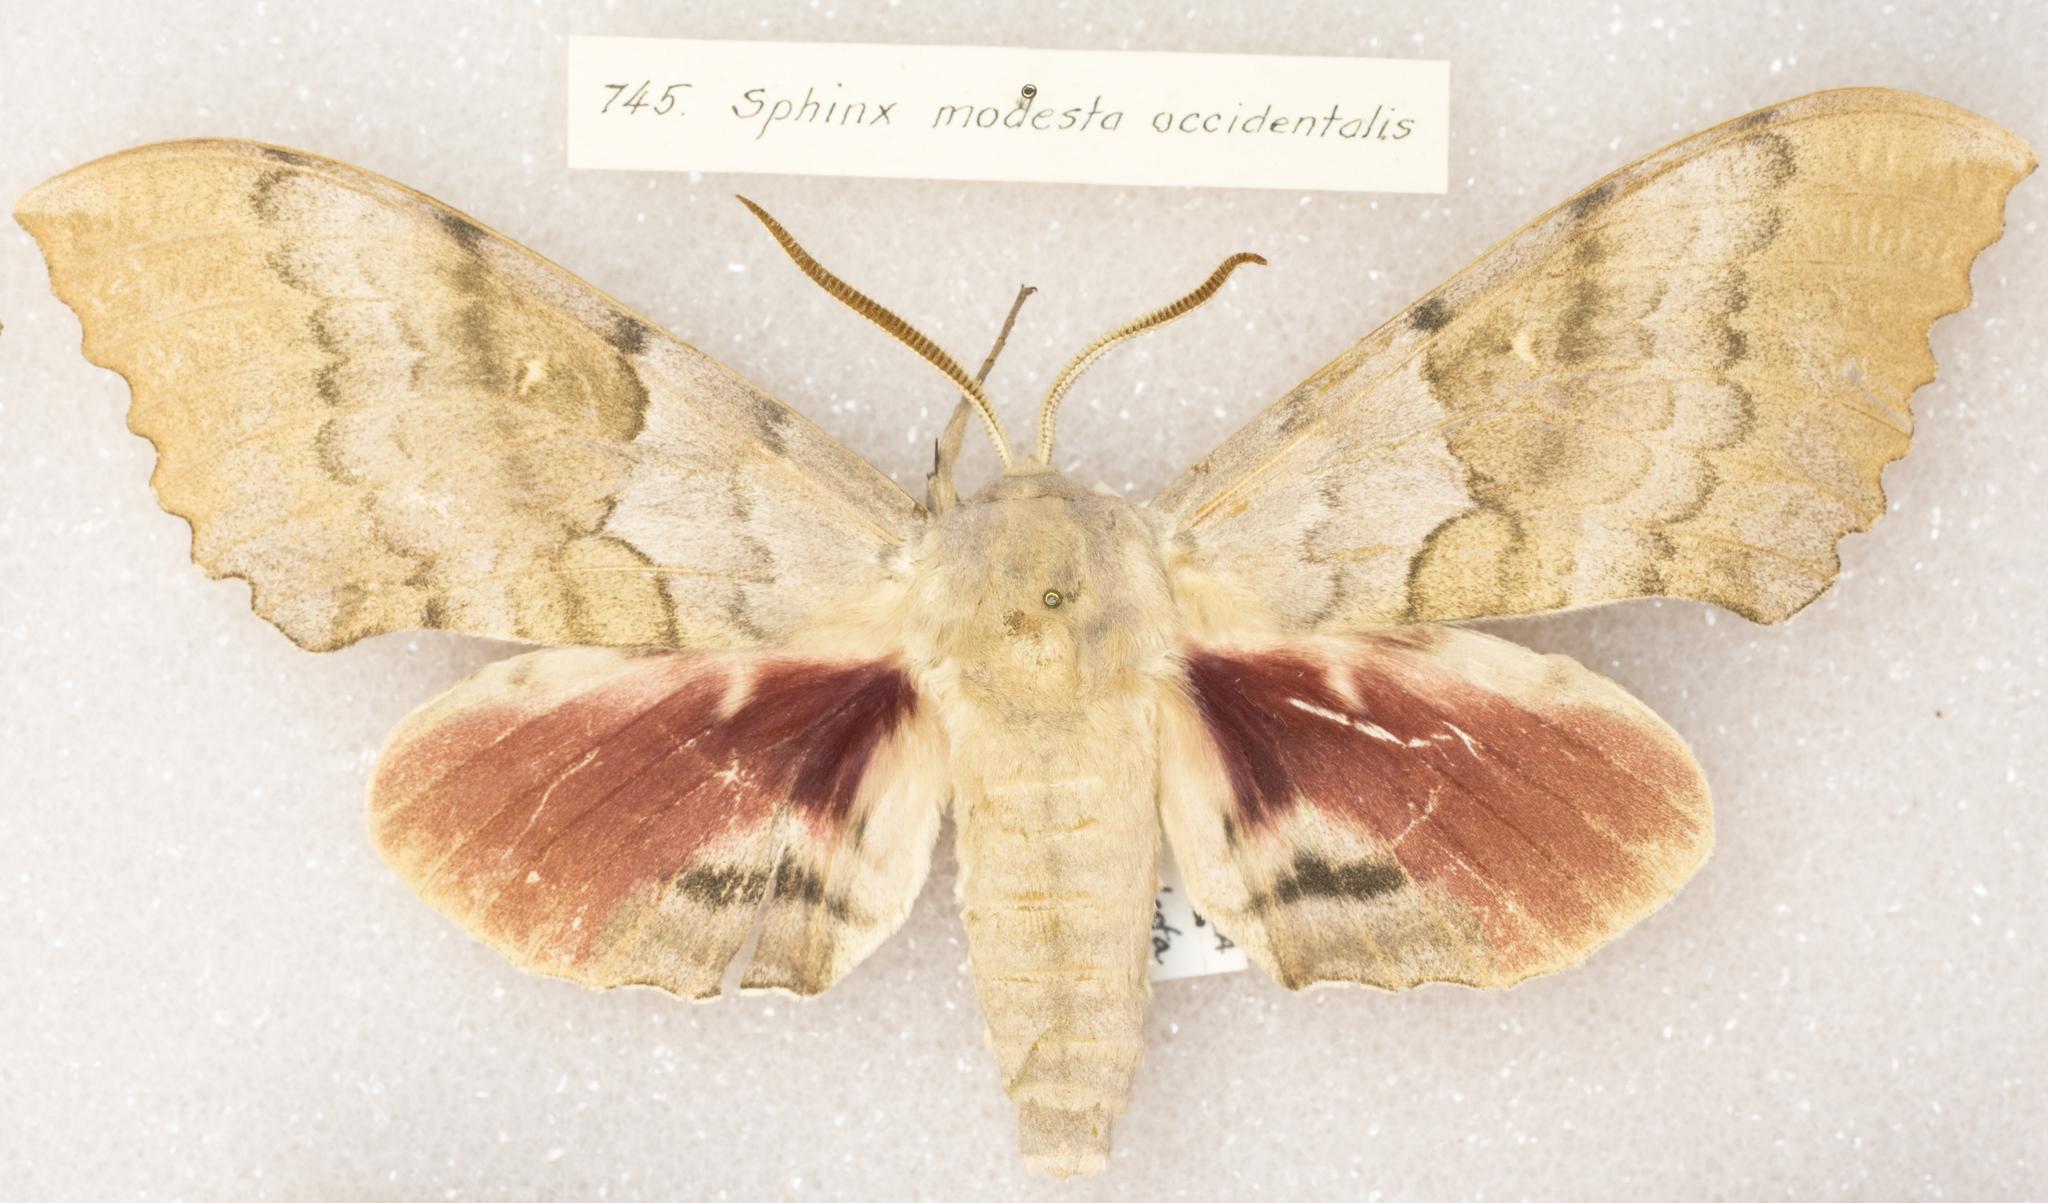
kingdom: Animalia
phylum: Arthropoda
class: Insecta
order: Lepidoptera
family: Sphingidae
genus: Pachysphinx
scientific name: Pachysphinx occidentalis
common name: Western poplar sphinx
